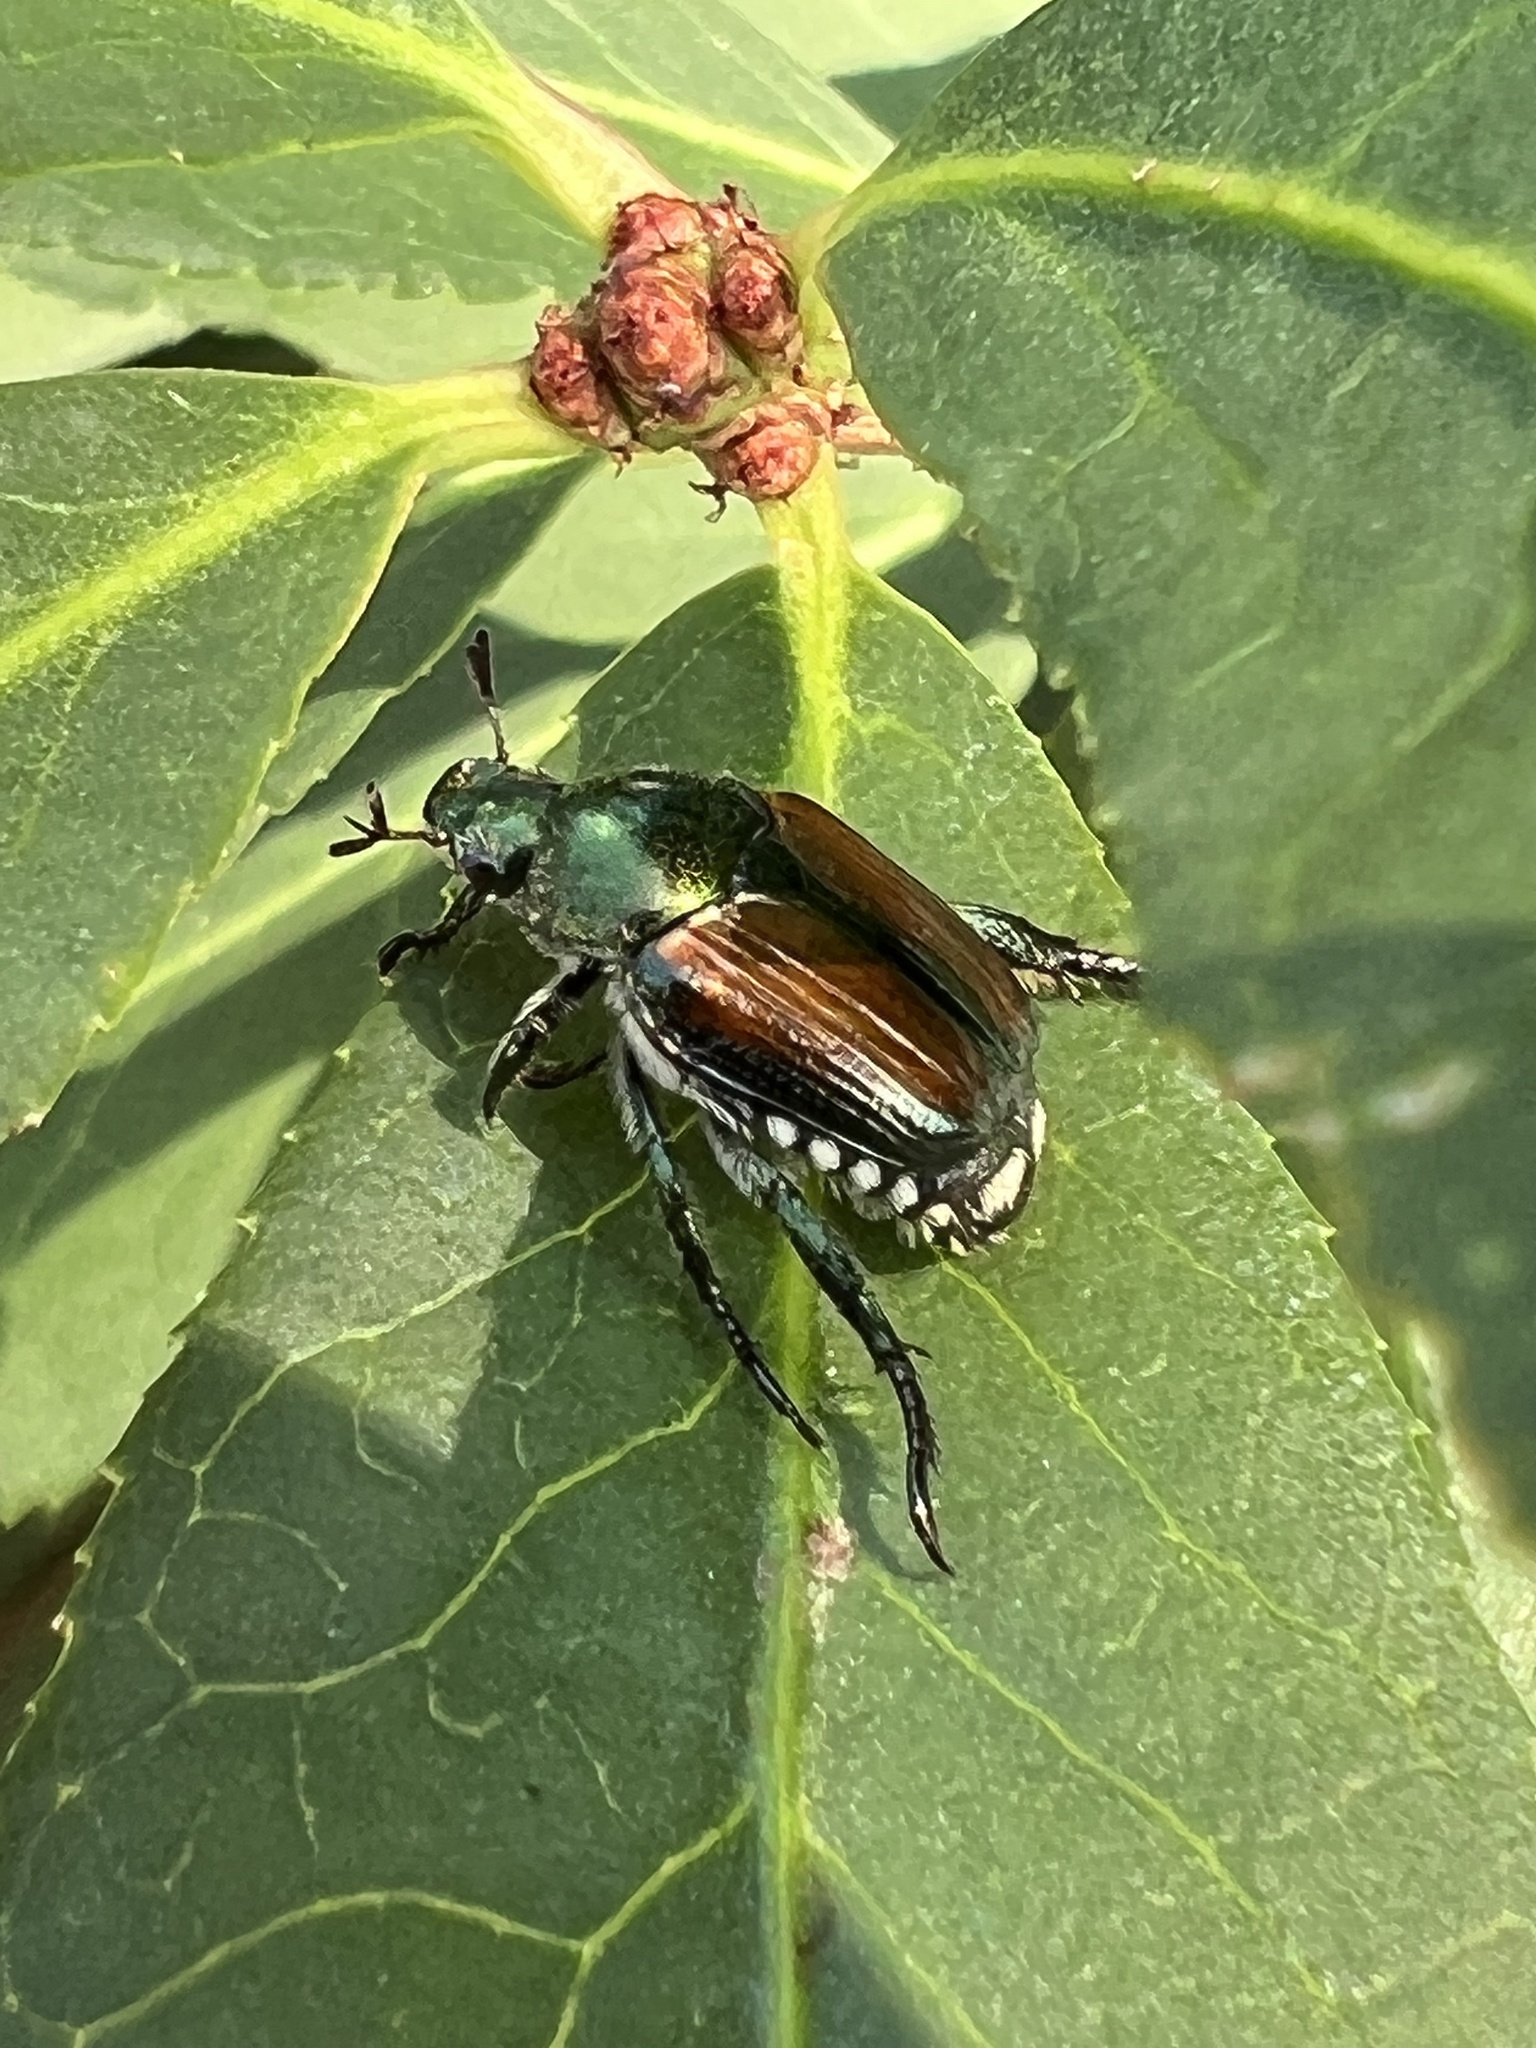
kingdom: Animalia
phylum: Arthropoda
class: Insecta
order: Coleoptera
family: Scarabaeidae
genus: Popillia
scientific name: Popillia japonica
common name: Japanese beetle
